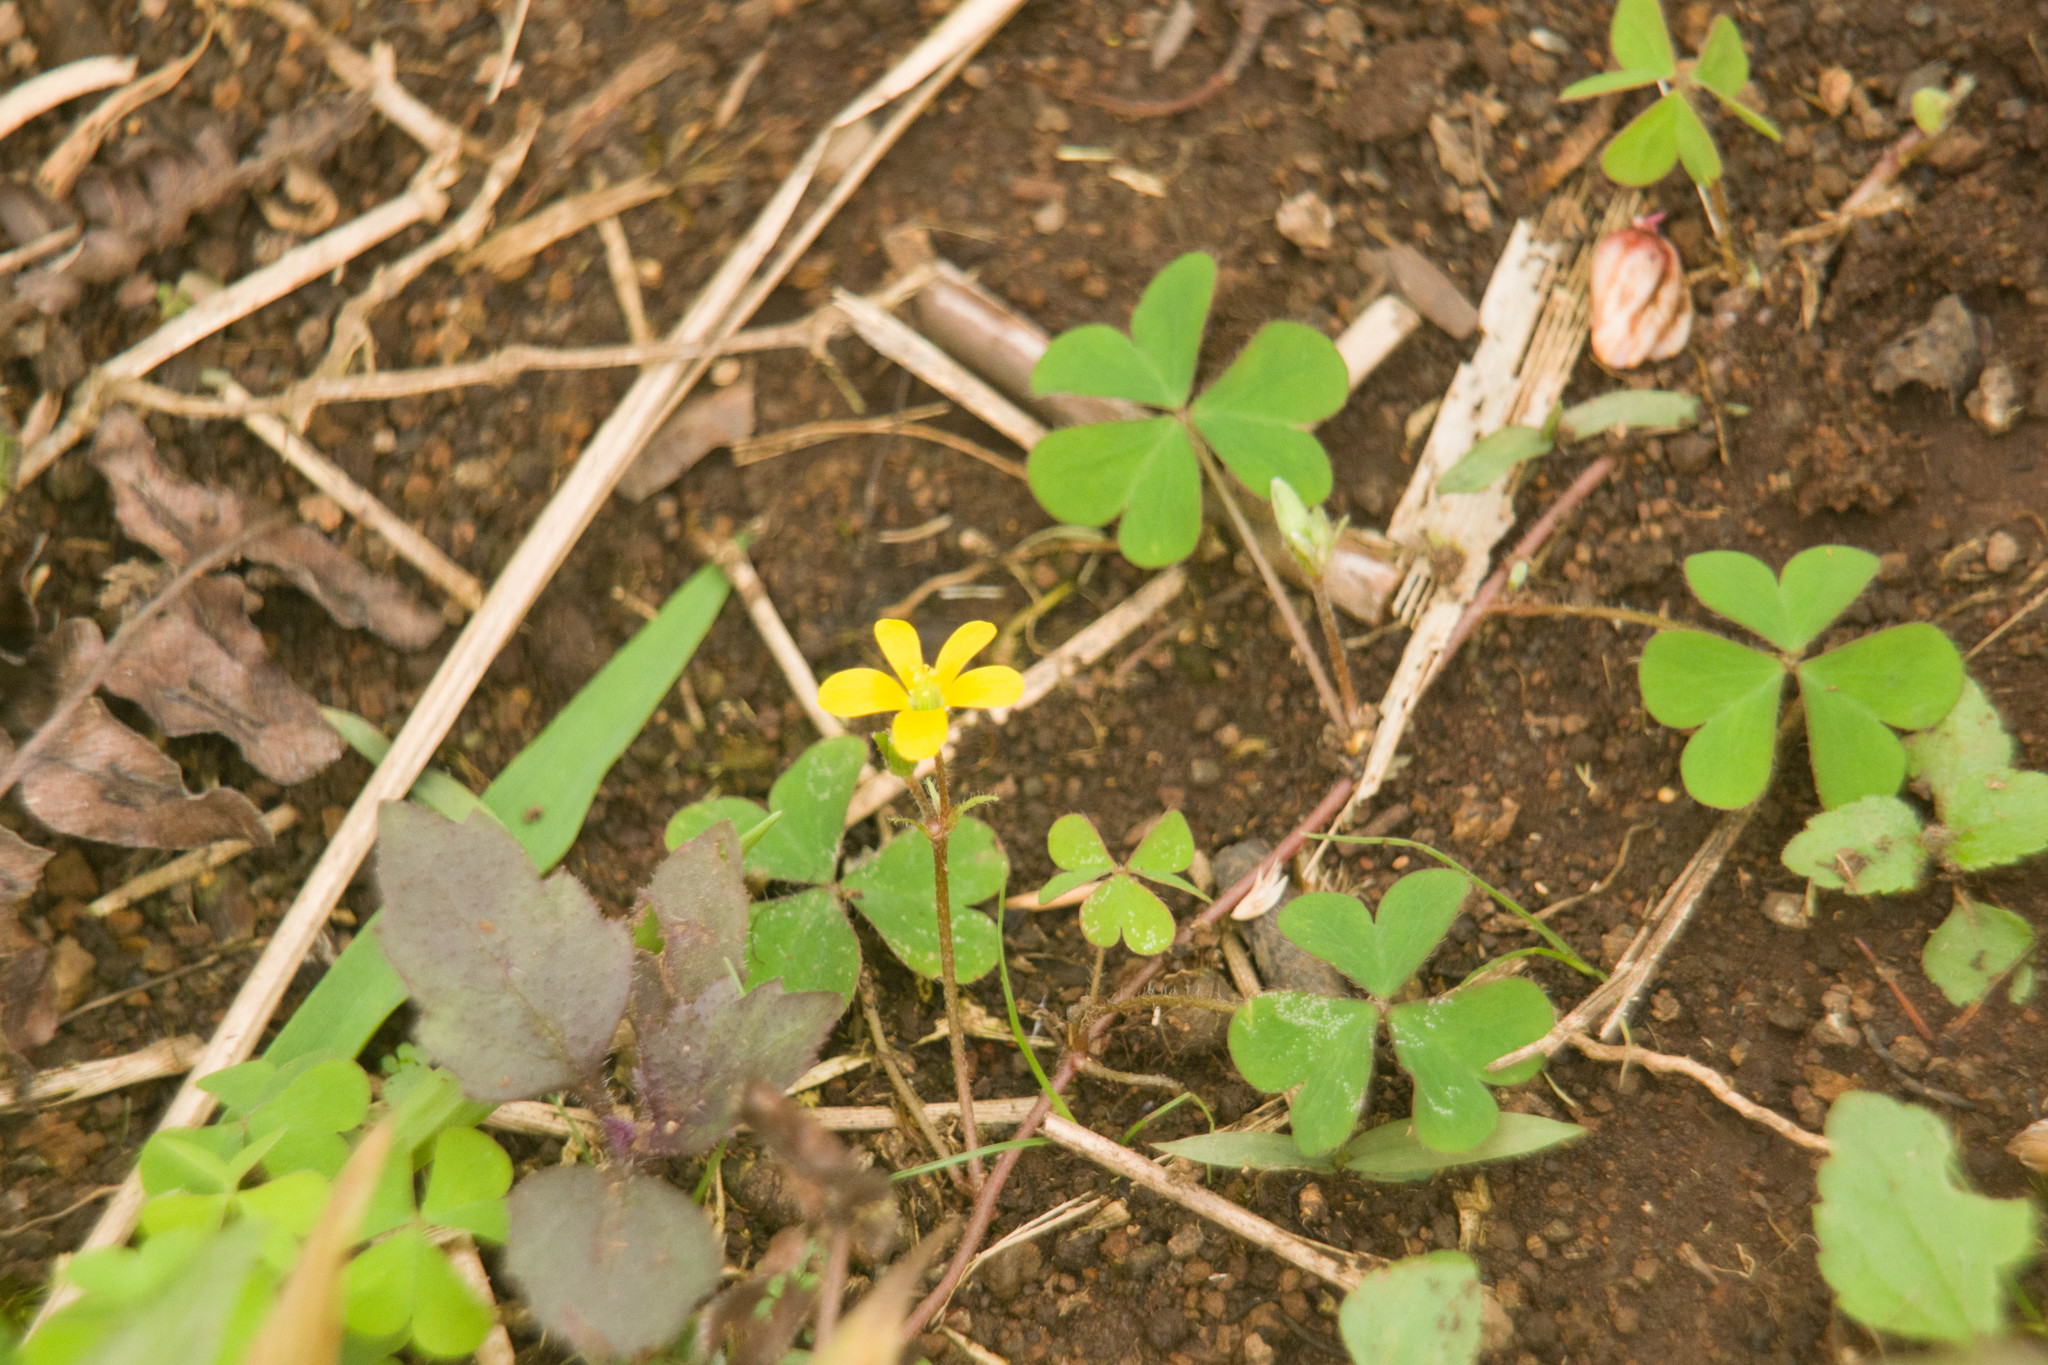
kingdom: Plantae
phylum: Tracheophyta
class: Magnoliopsida
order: Oxalidales
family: Oxalidaceae
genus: Oxalis
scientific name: Oxalis corniculata
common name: Procumbent yellow-sorrel
